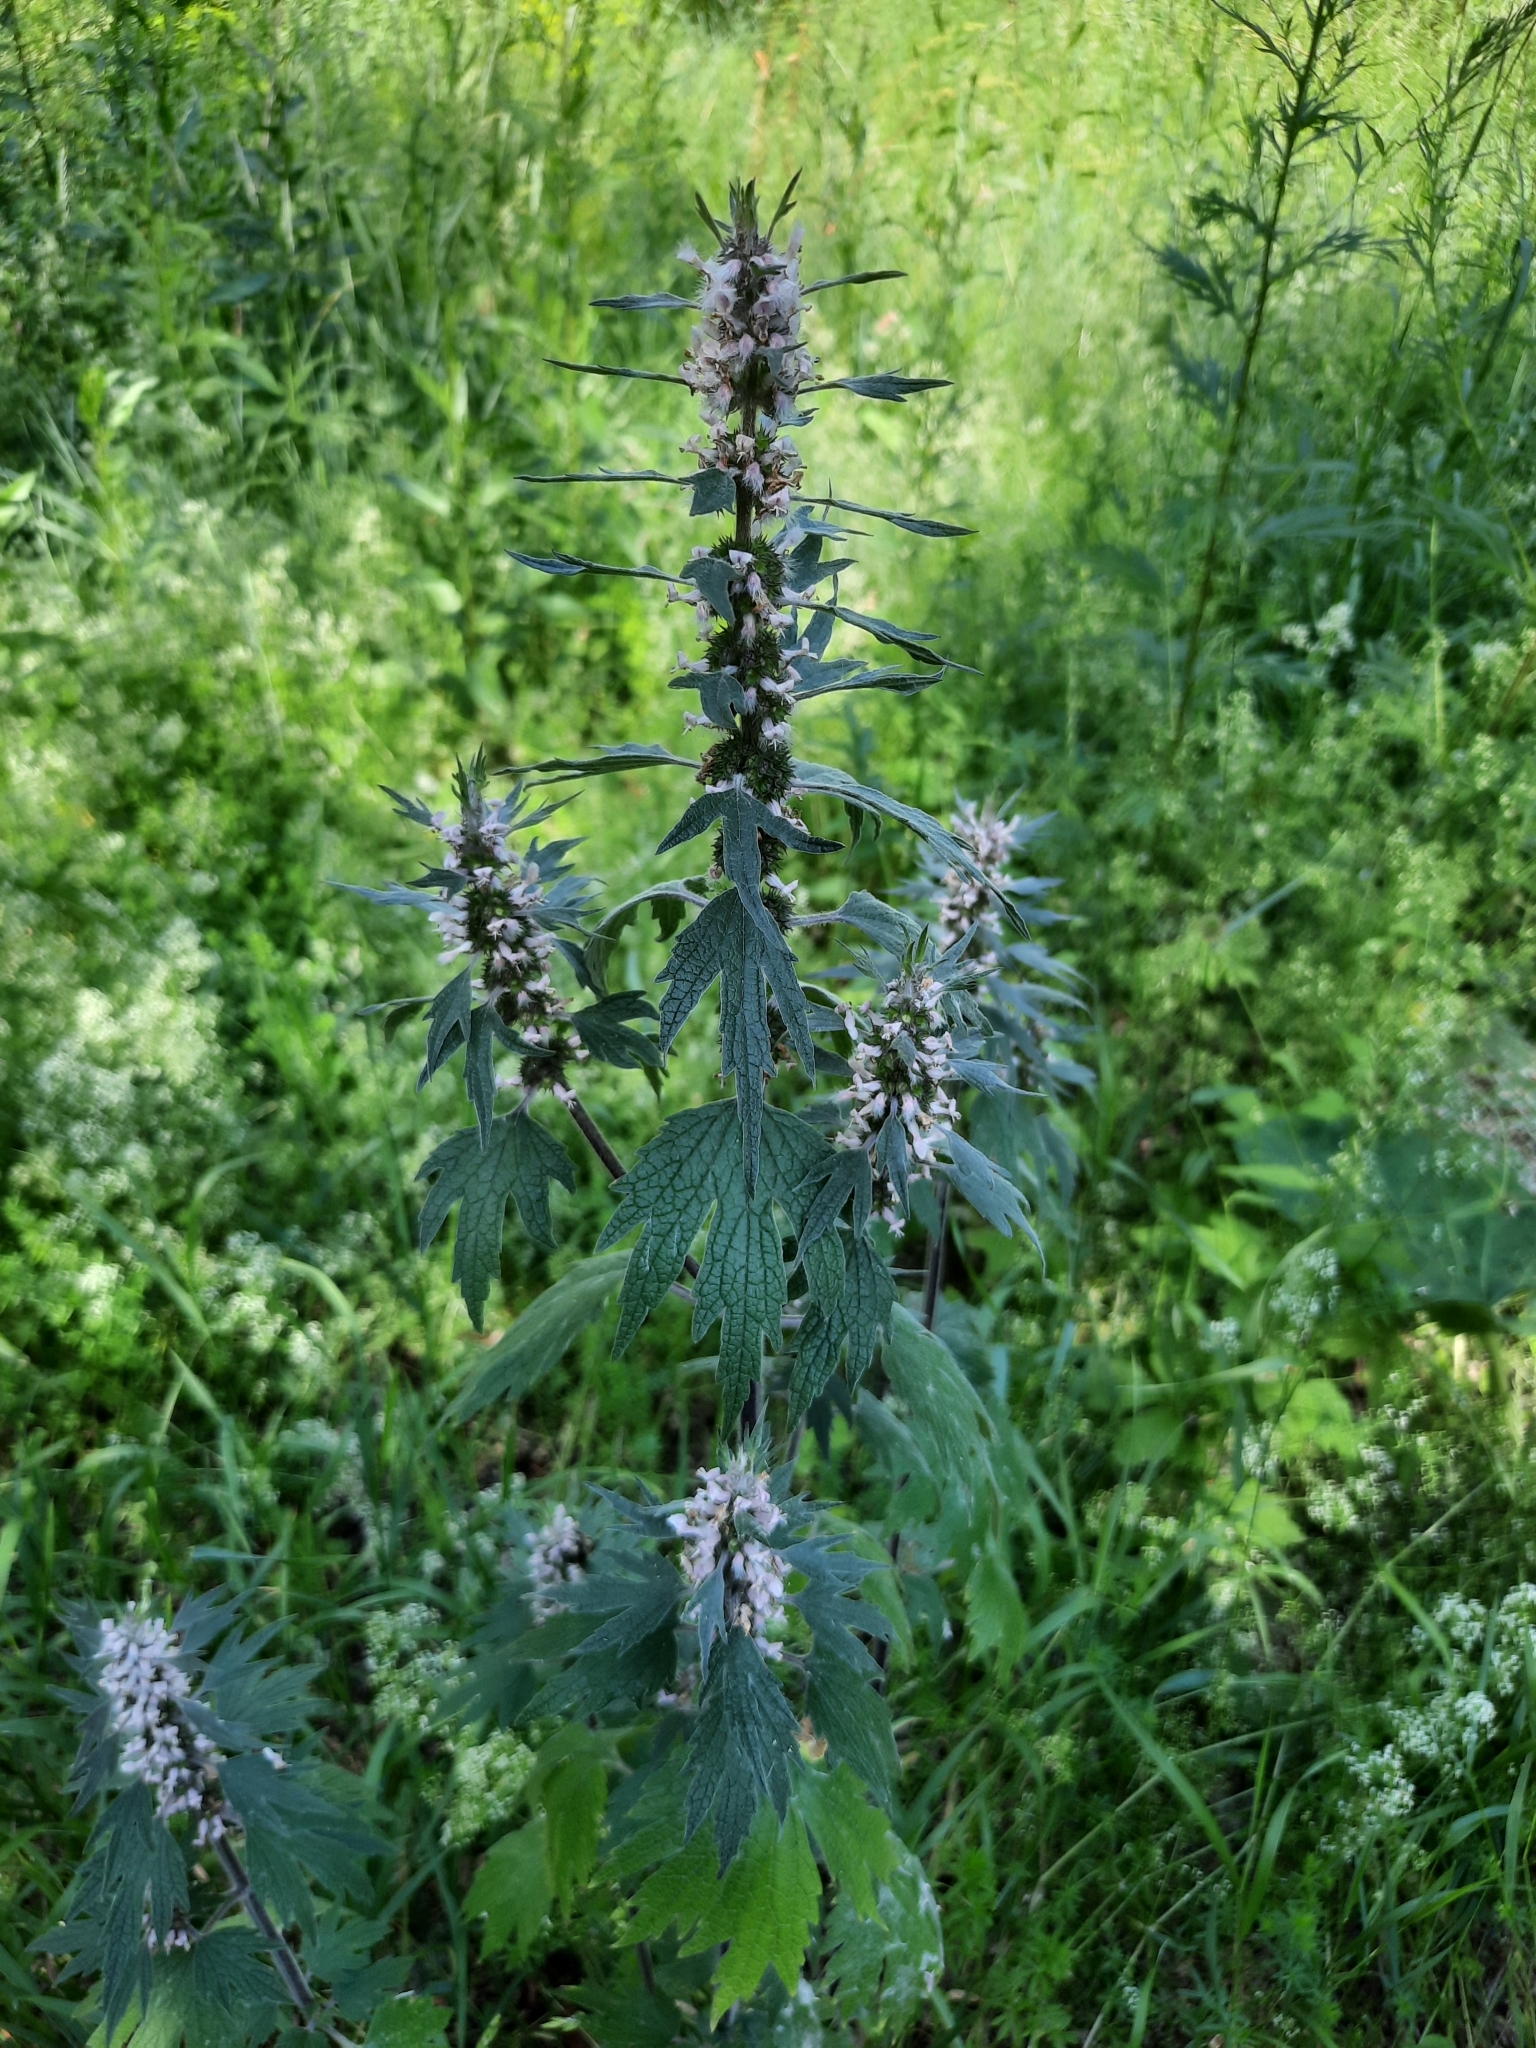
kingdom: Plantae
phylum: Tracheophyta
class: Magnoliopsida
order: Lamiales
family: Lamiaceae
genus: Leonurus
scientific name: Leonurus quinquelobatus
